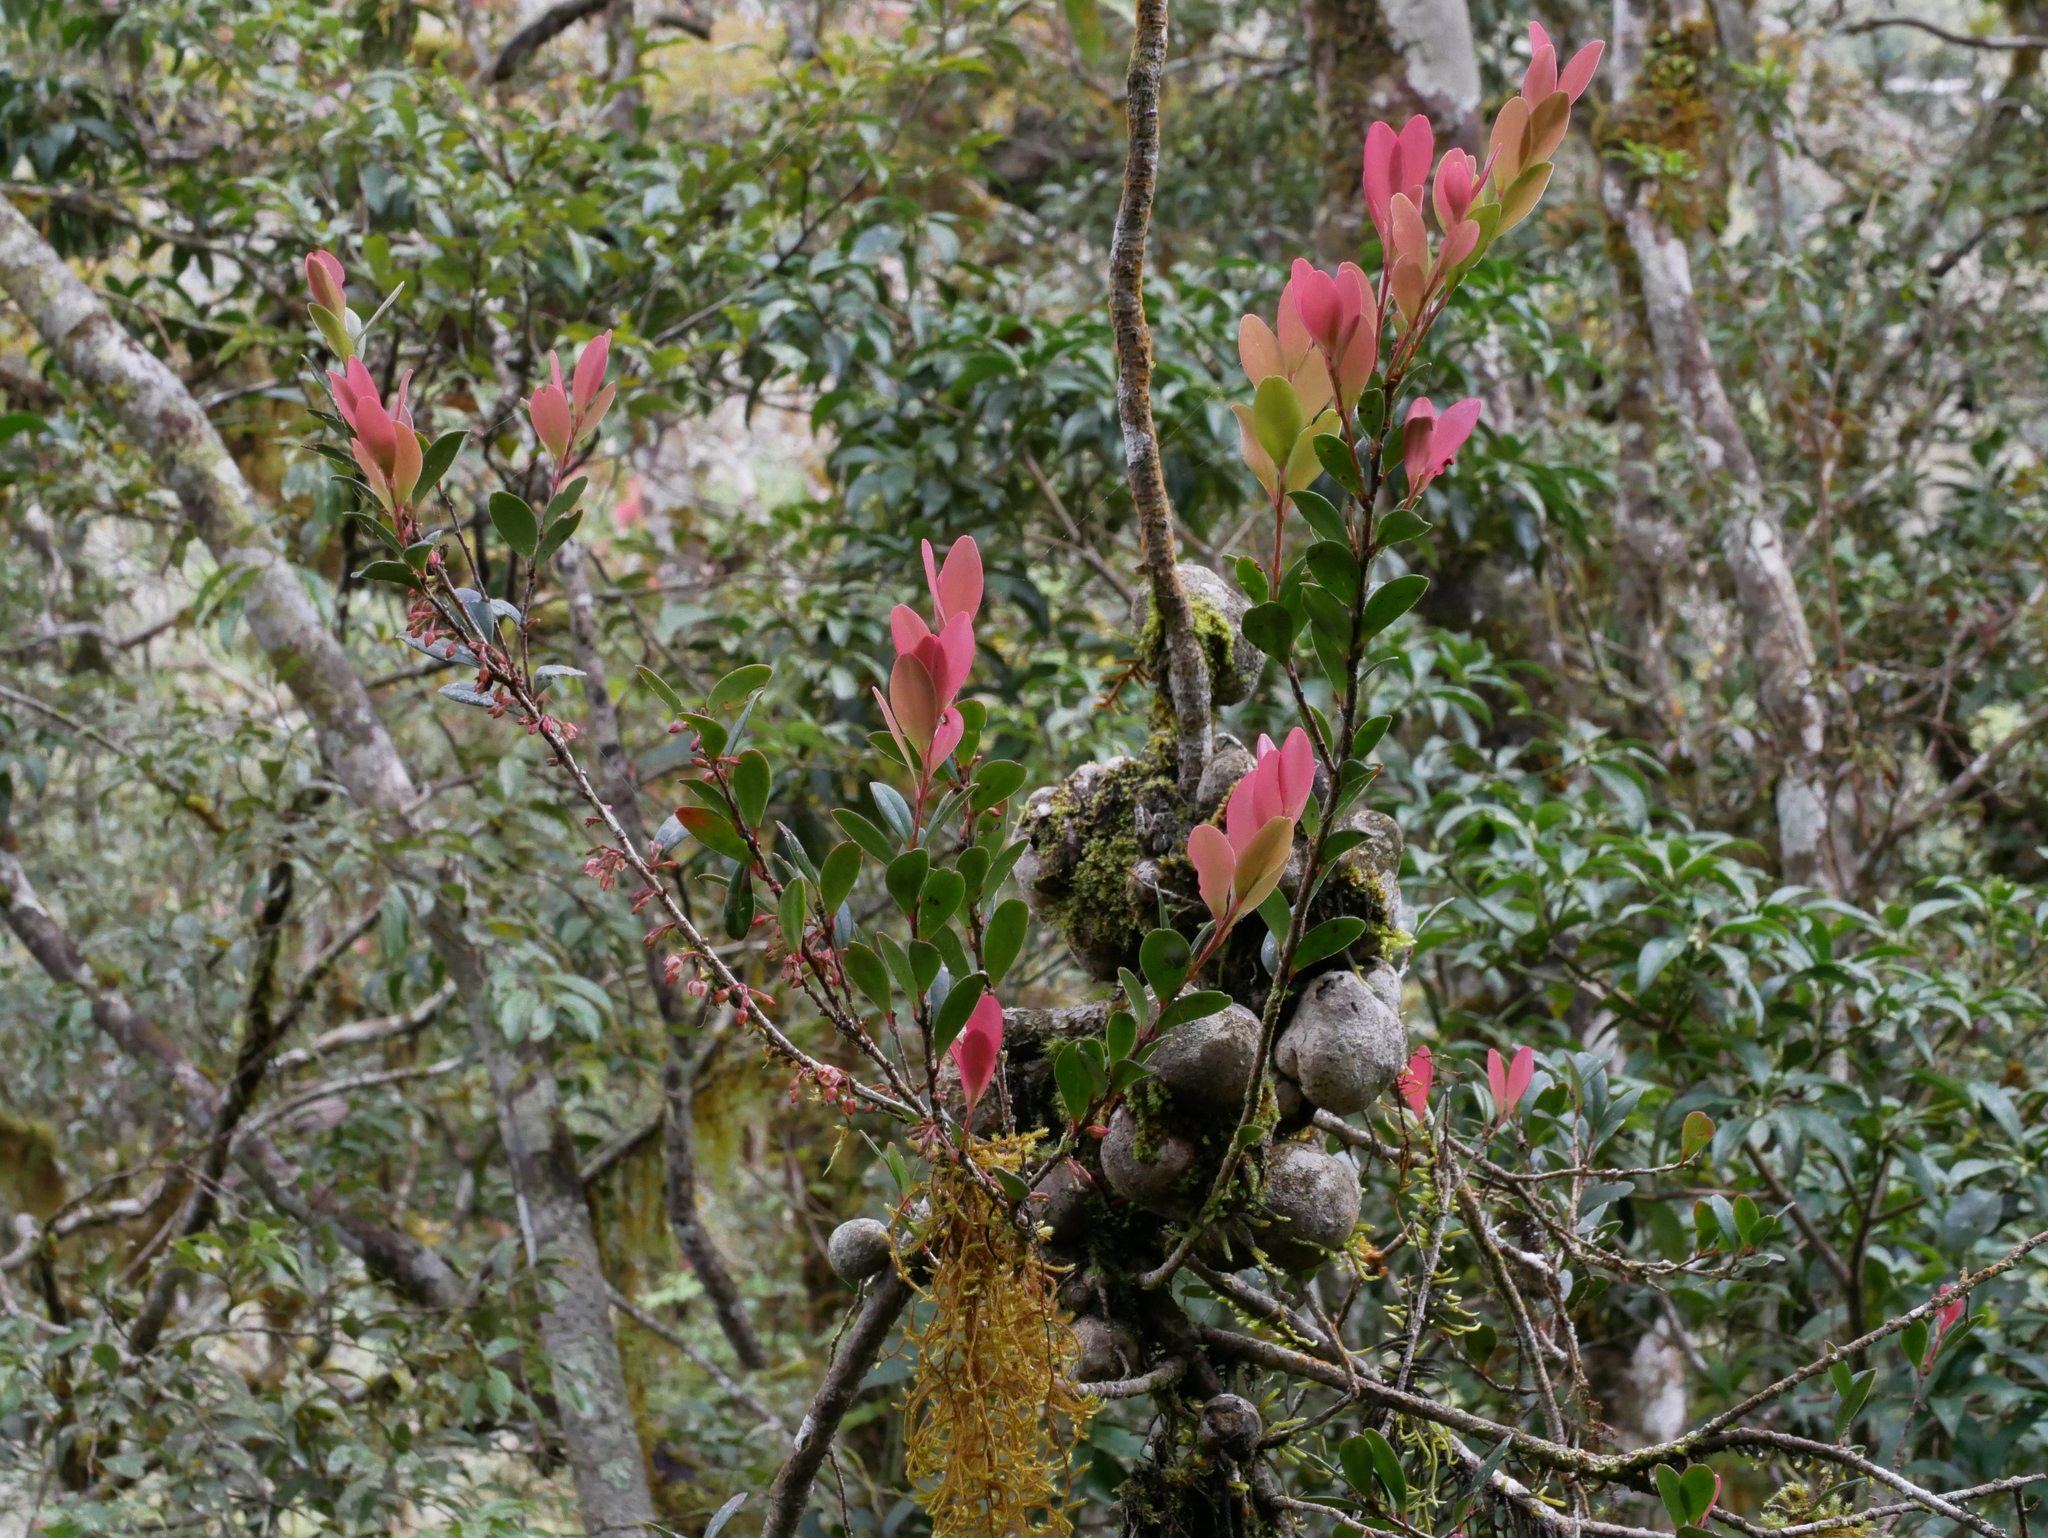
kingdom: Plantae
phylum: Tracheophyta
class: Magnoliopsida
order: Ericales
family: Ericaceae
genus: Vaccinium
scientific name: Vaccinium emarginatum
